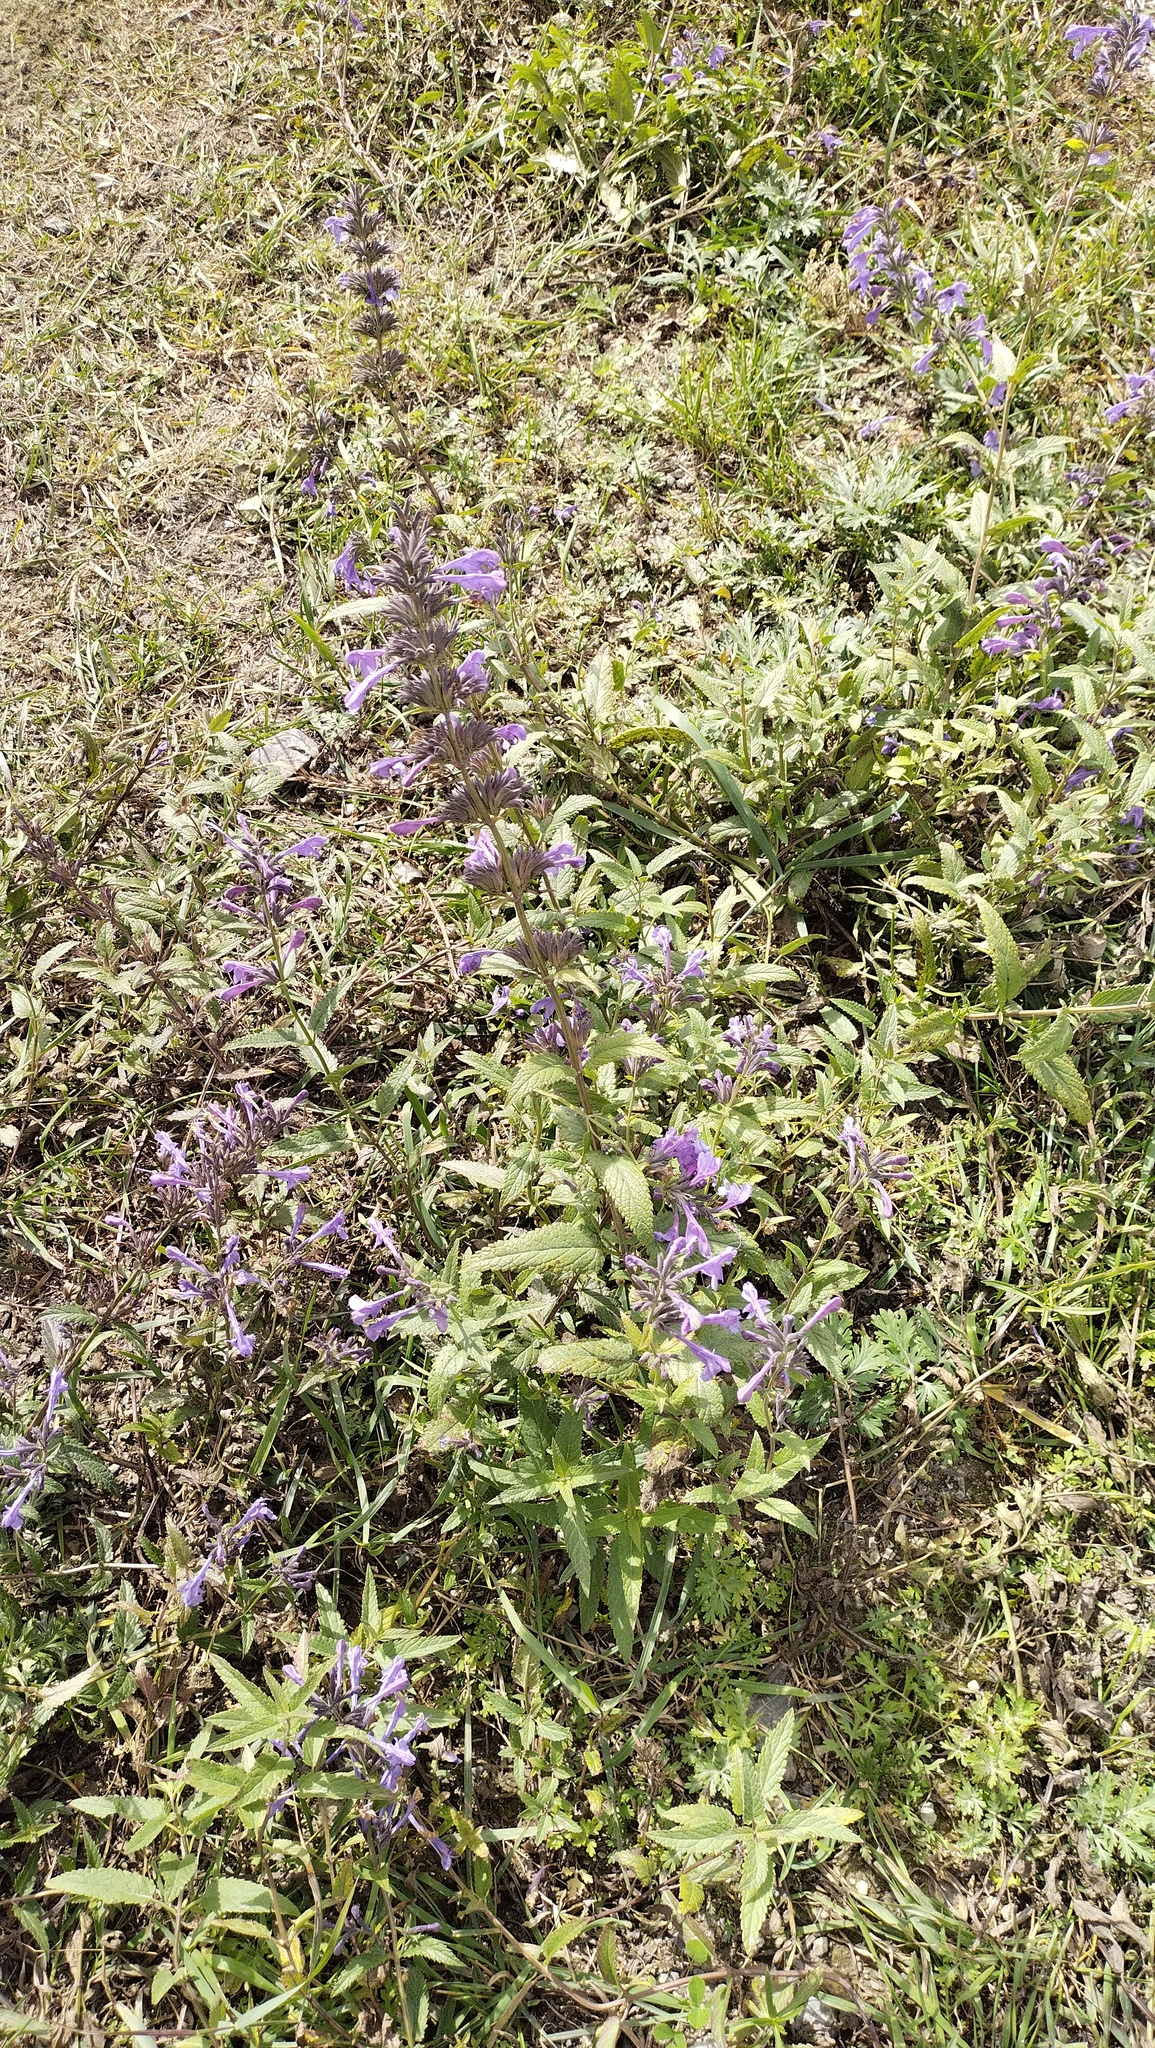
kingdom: Plantae
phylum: Tracheophyta
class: Magnoliopsida
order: Lamiales
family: Lamiaceae
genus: Nepeta
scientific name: Nepeta sibirica
